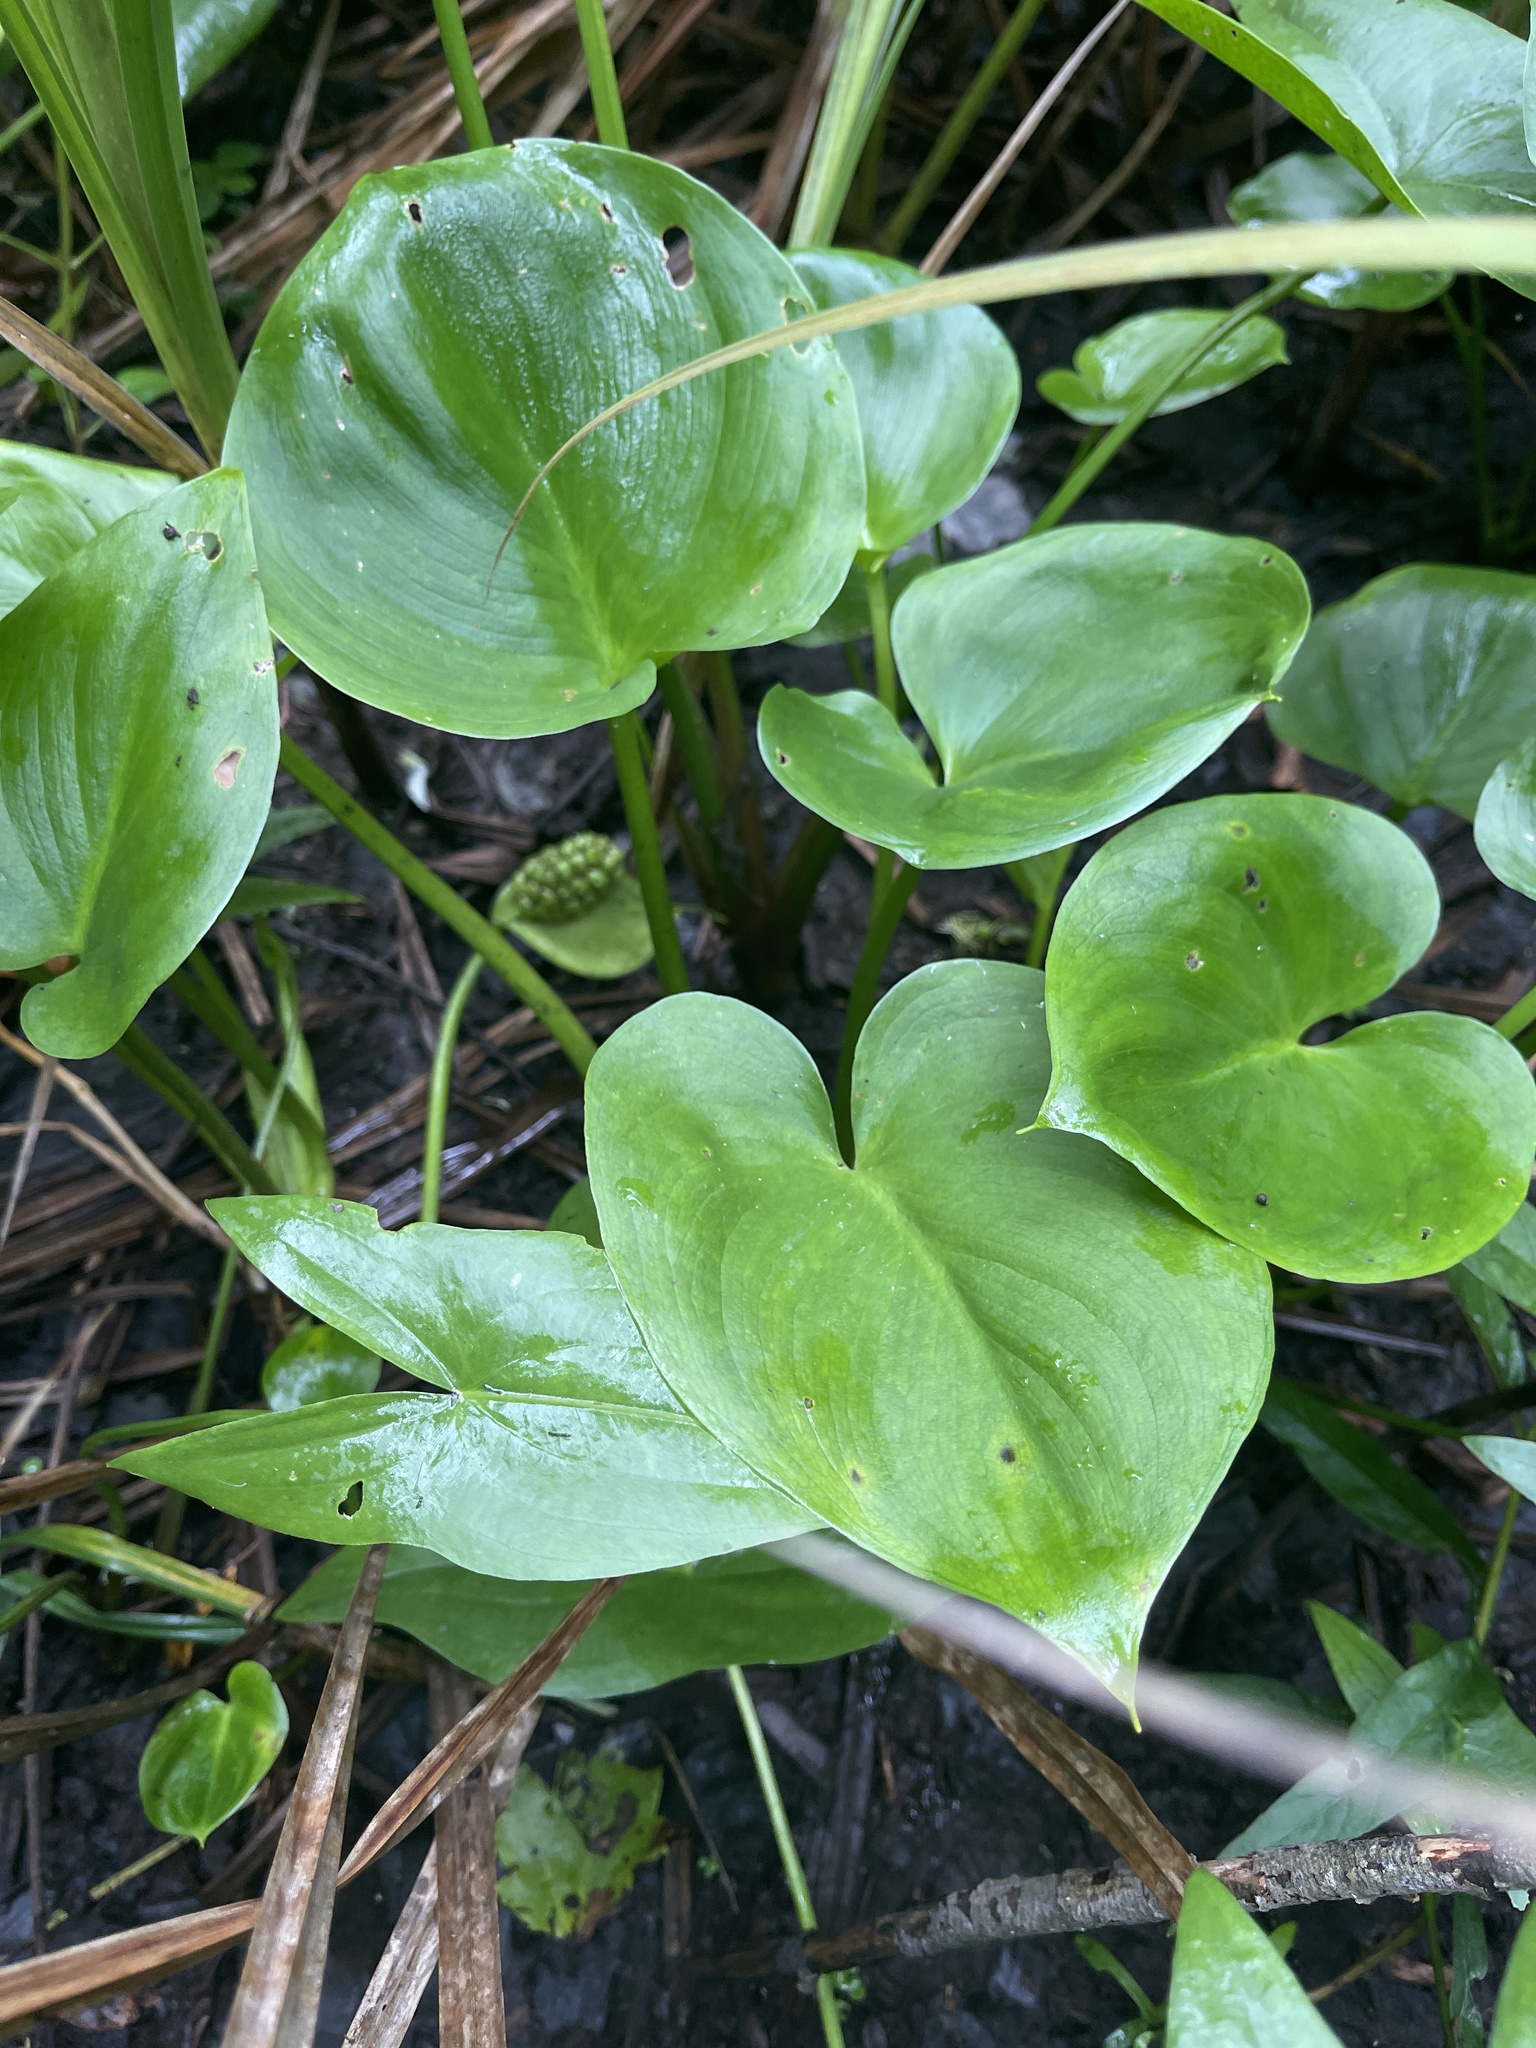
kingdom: Plantae
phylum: Tracheophyta
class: Liliopsida
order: Alismatales
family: Araceae
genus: Calla
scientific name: Calla palustris
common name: Bog arum
